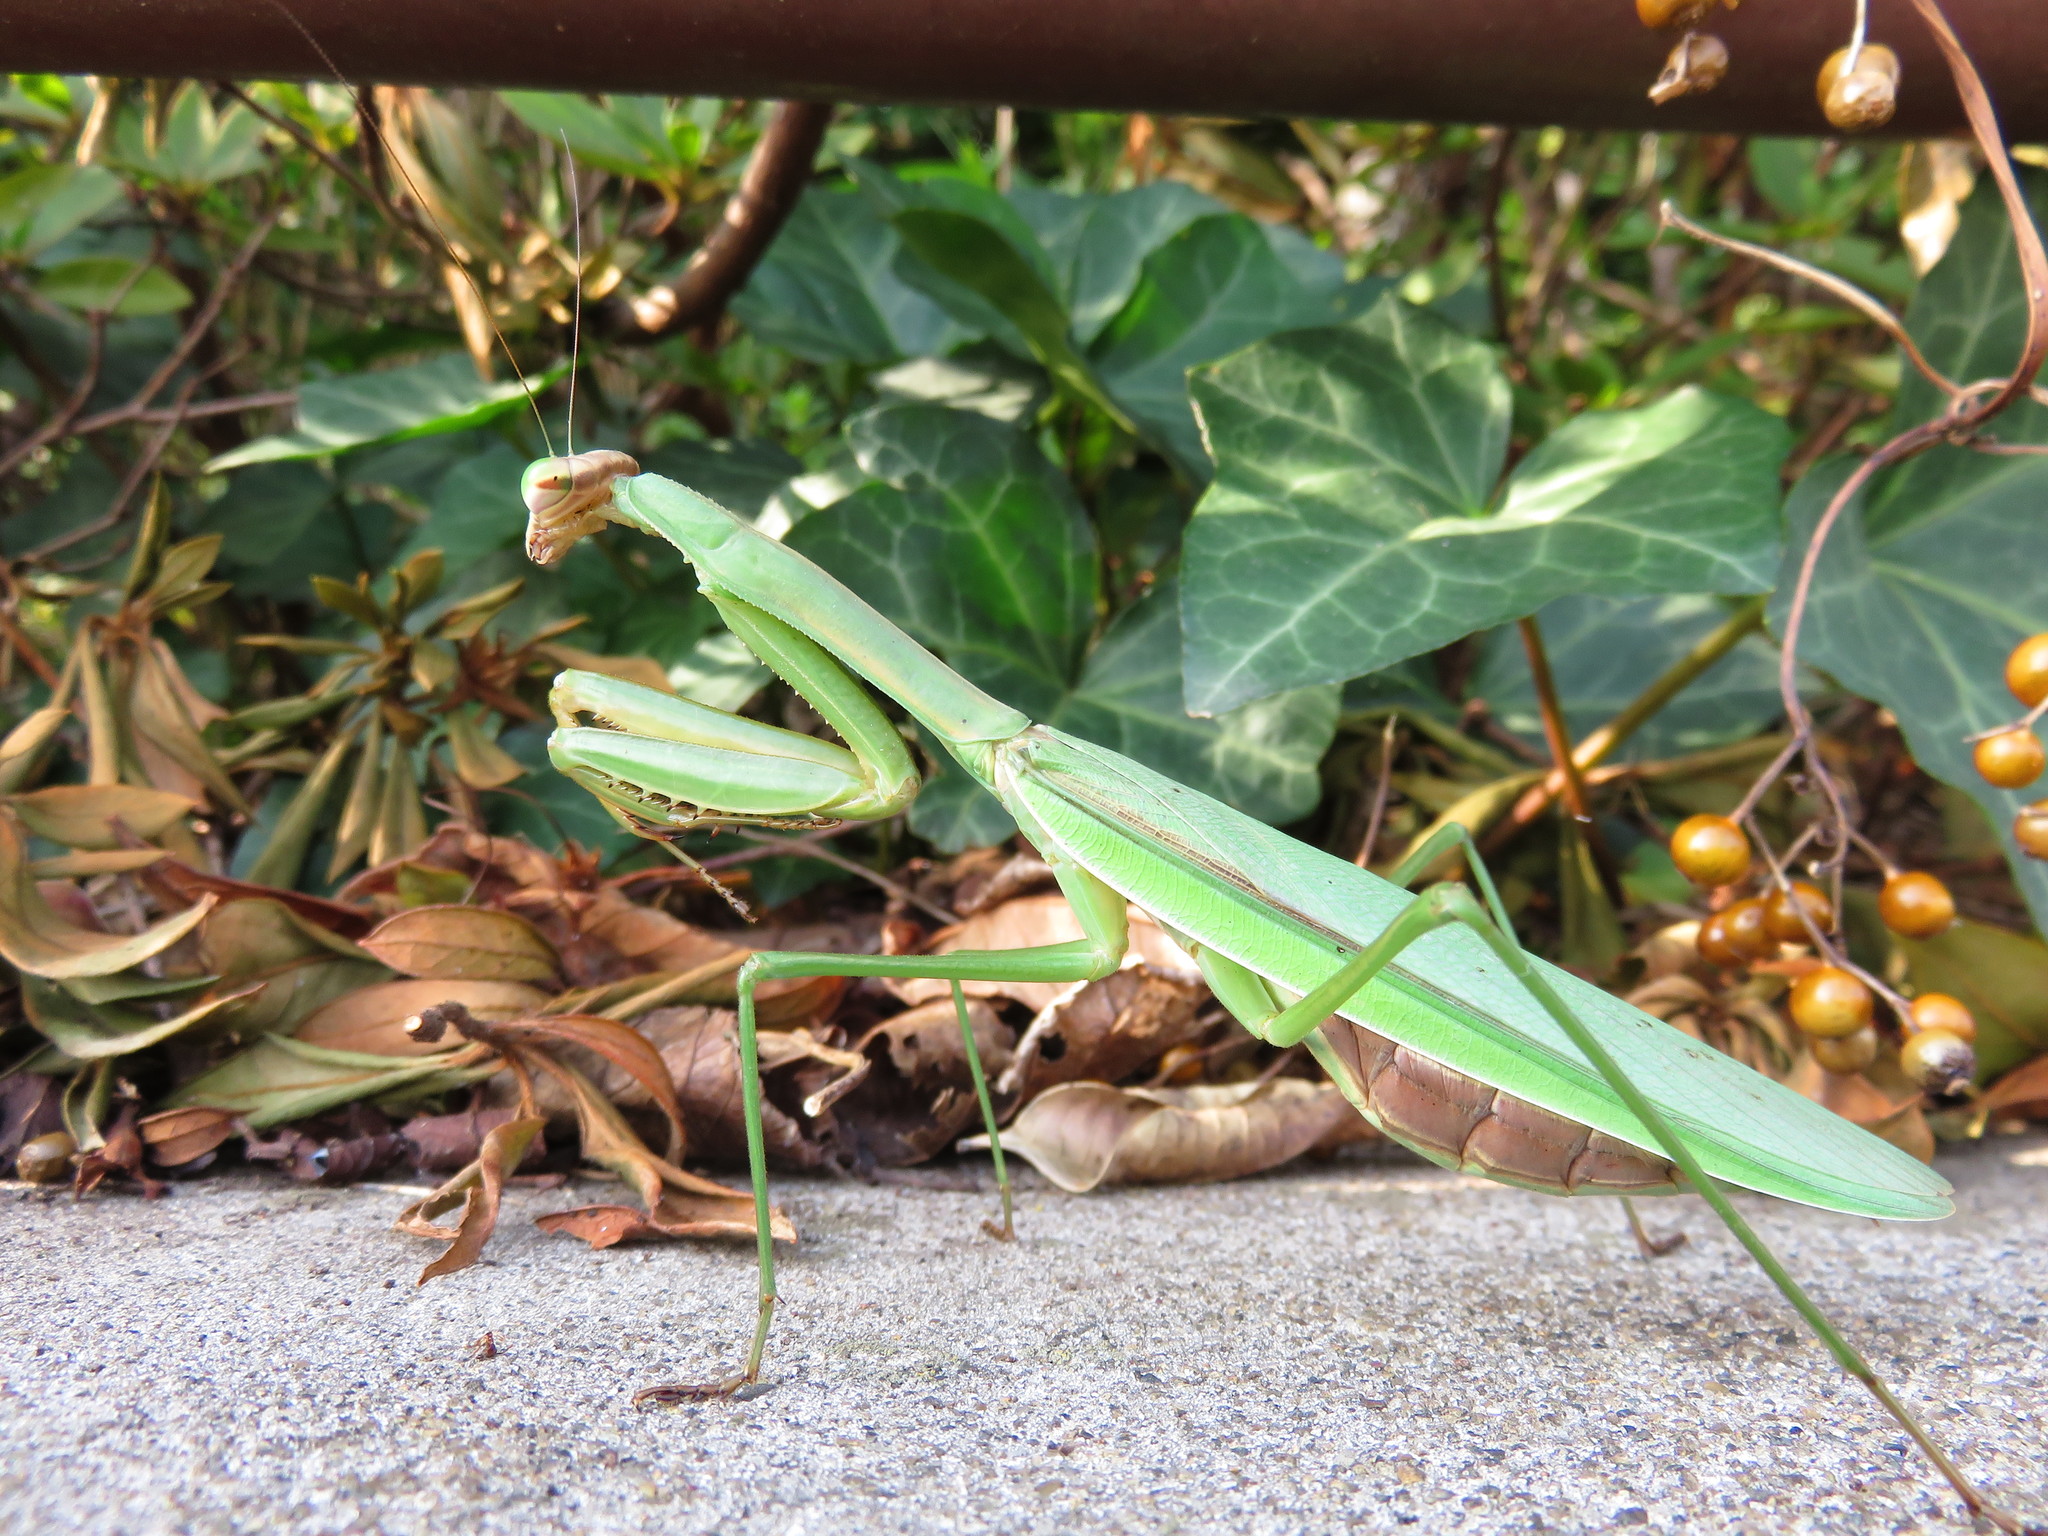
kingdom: Animalia
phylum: Arthropoda
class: Insecta
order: Mantodea
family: Mantidae
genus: Tenodera
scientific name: Tenodera sinensis
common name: Chinese mantis
